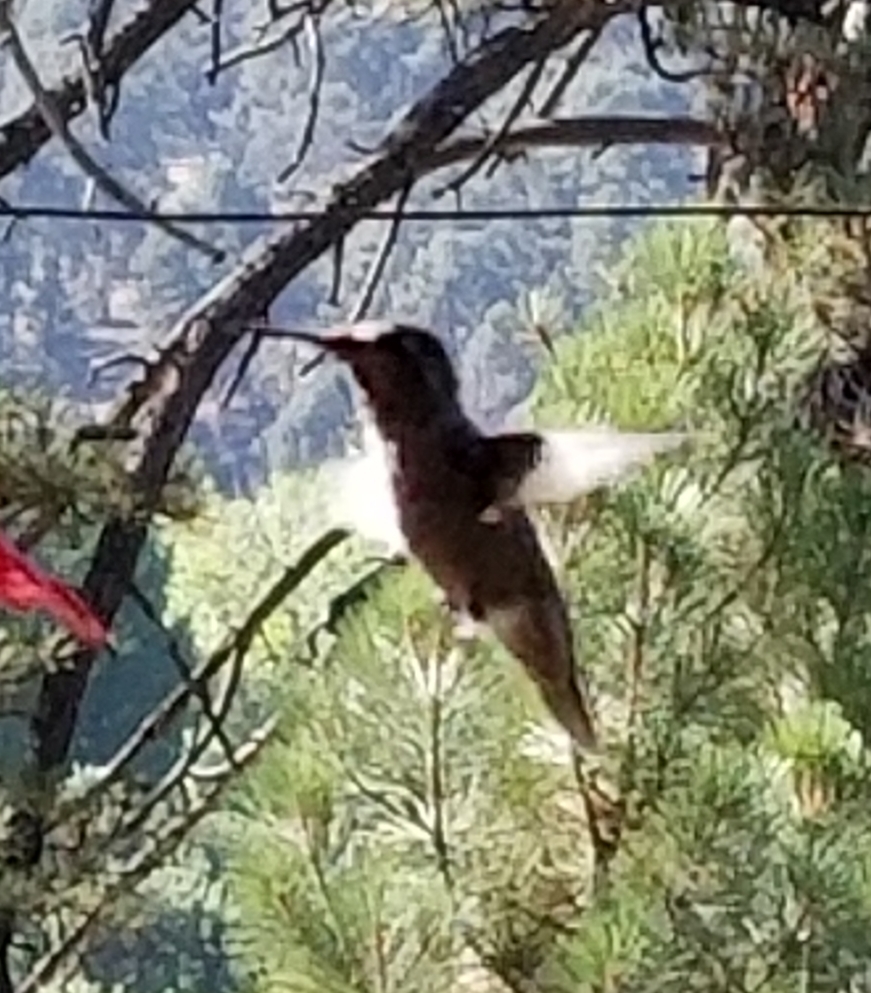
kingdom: Animalia
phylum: Chordata
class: Aves
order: Apodiformes
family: Trochilidae
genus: Calypte
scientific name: Calypte anna
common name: Anna's hummingbird
